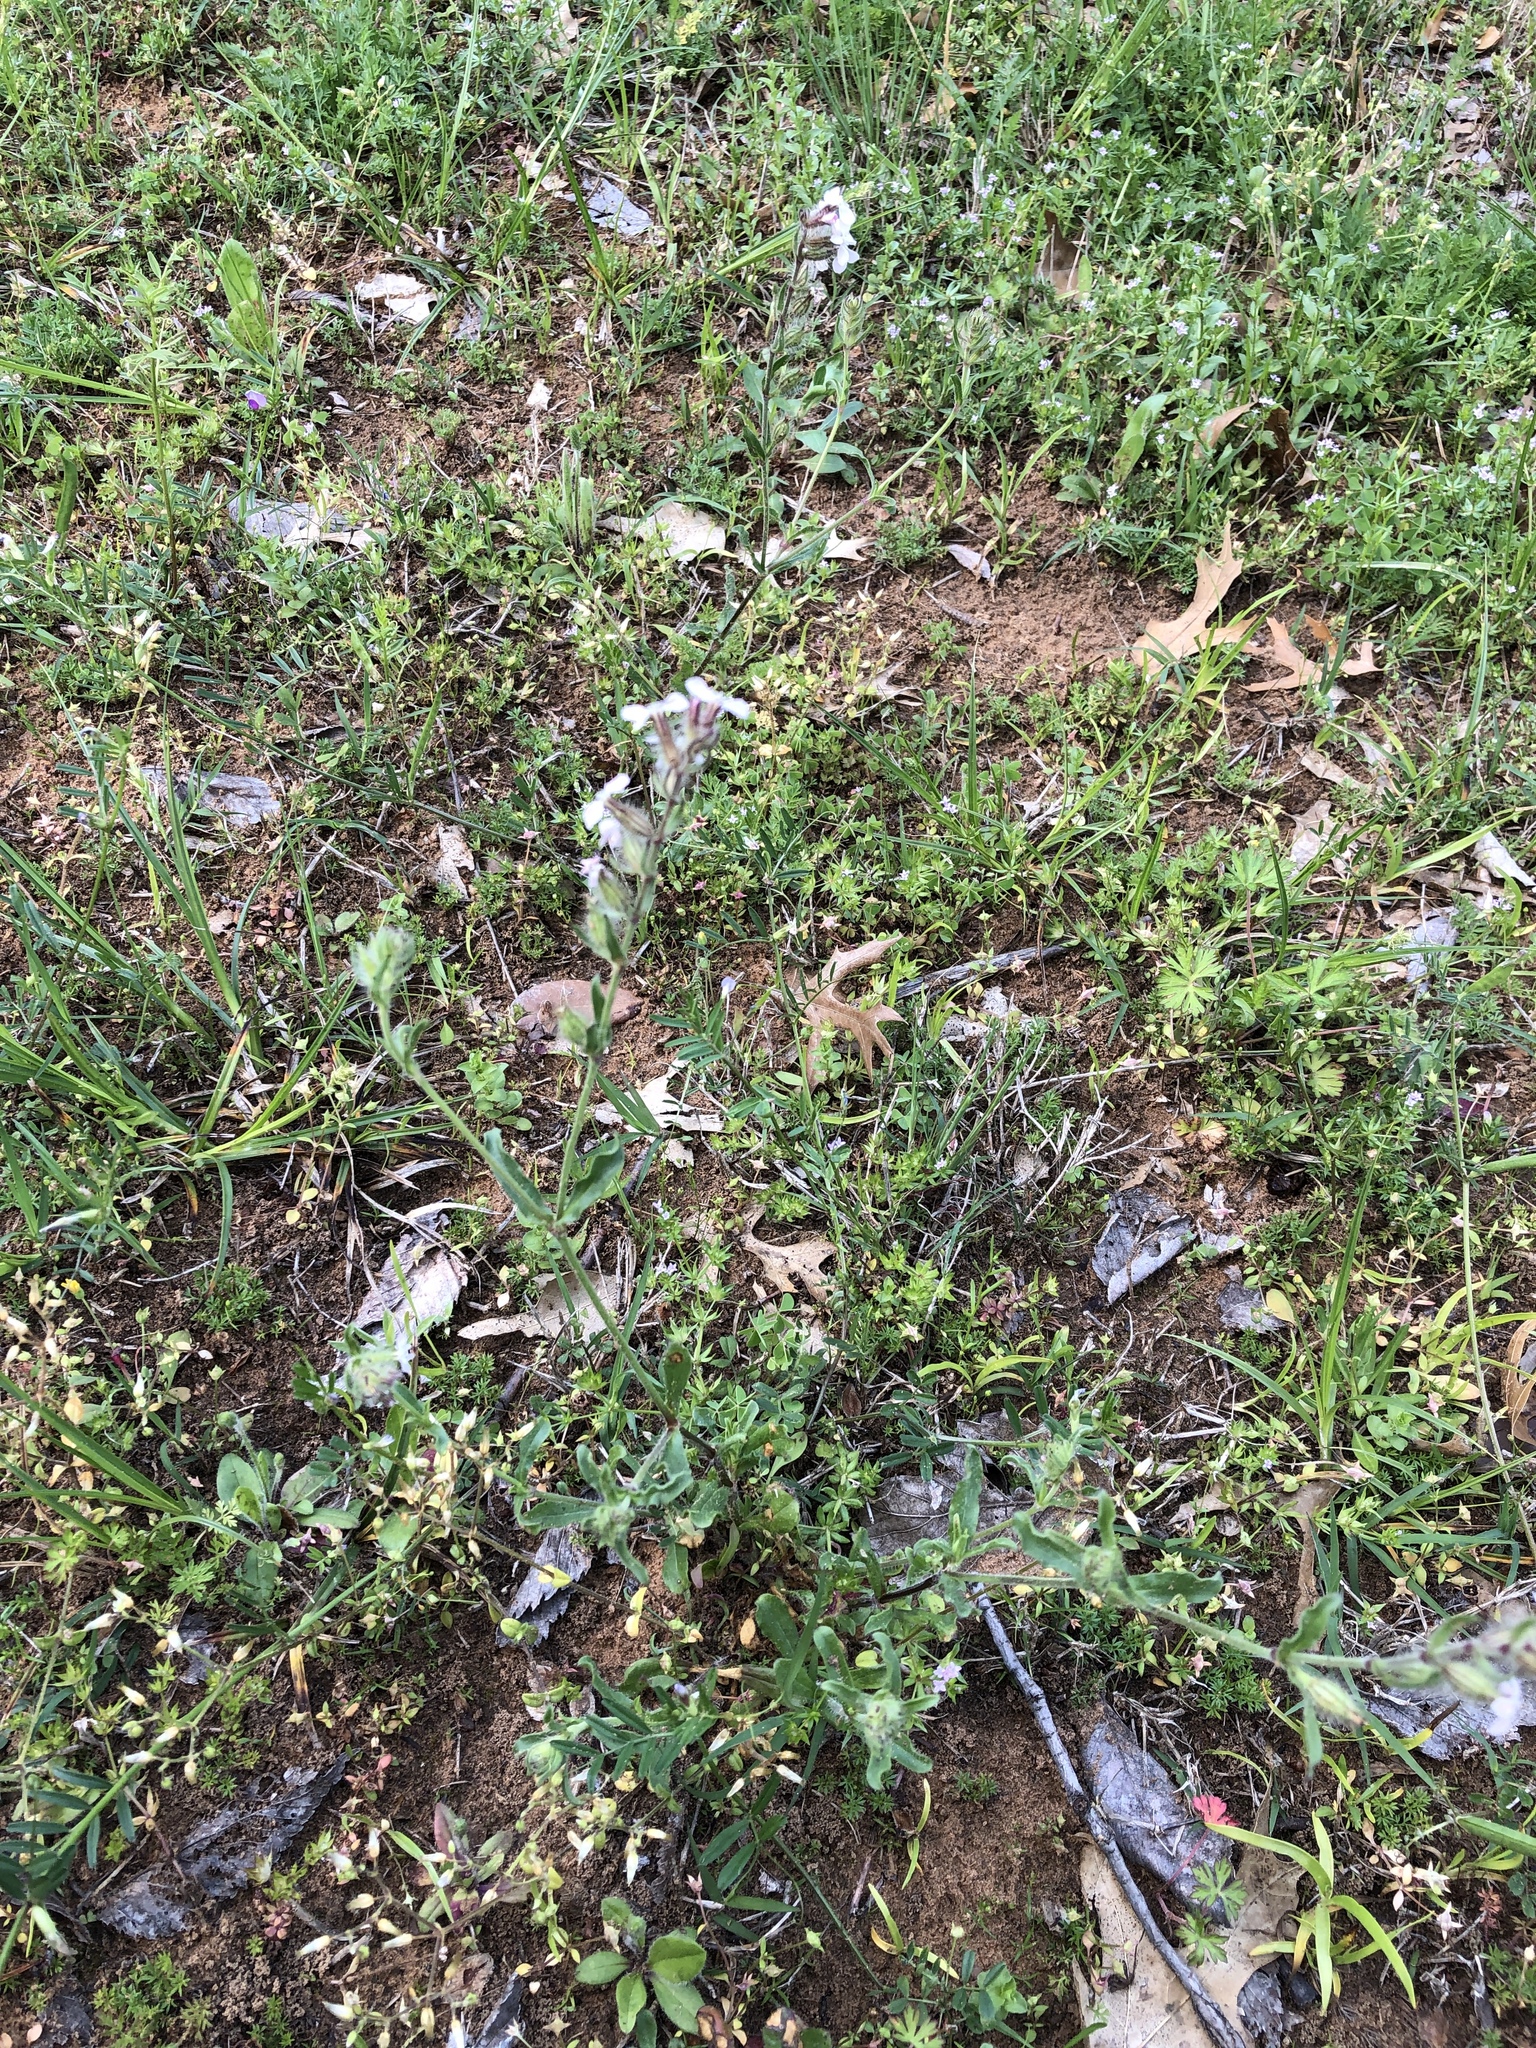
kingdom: Plantae
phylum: Tracheophyta
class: Magnoliopsida
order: Caryophyllales
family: Caryophyllaceae
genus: Silene
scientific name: Silene gallica
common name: Small-flowered catchfly
